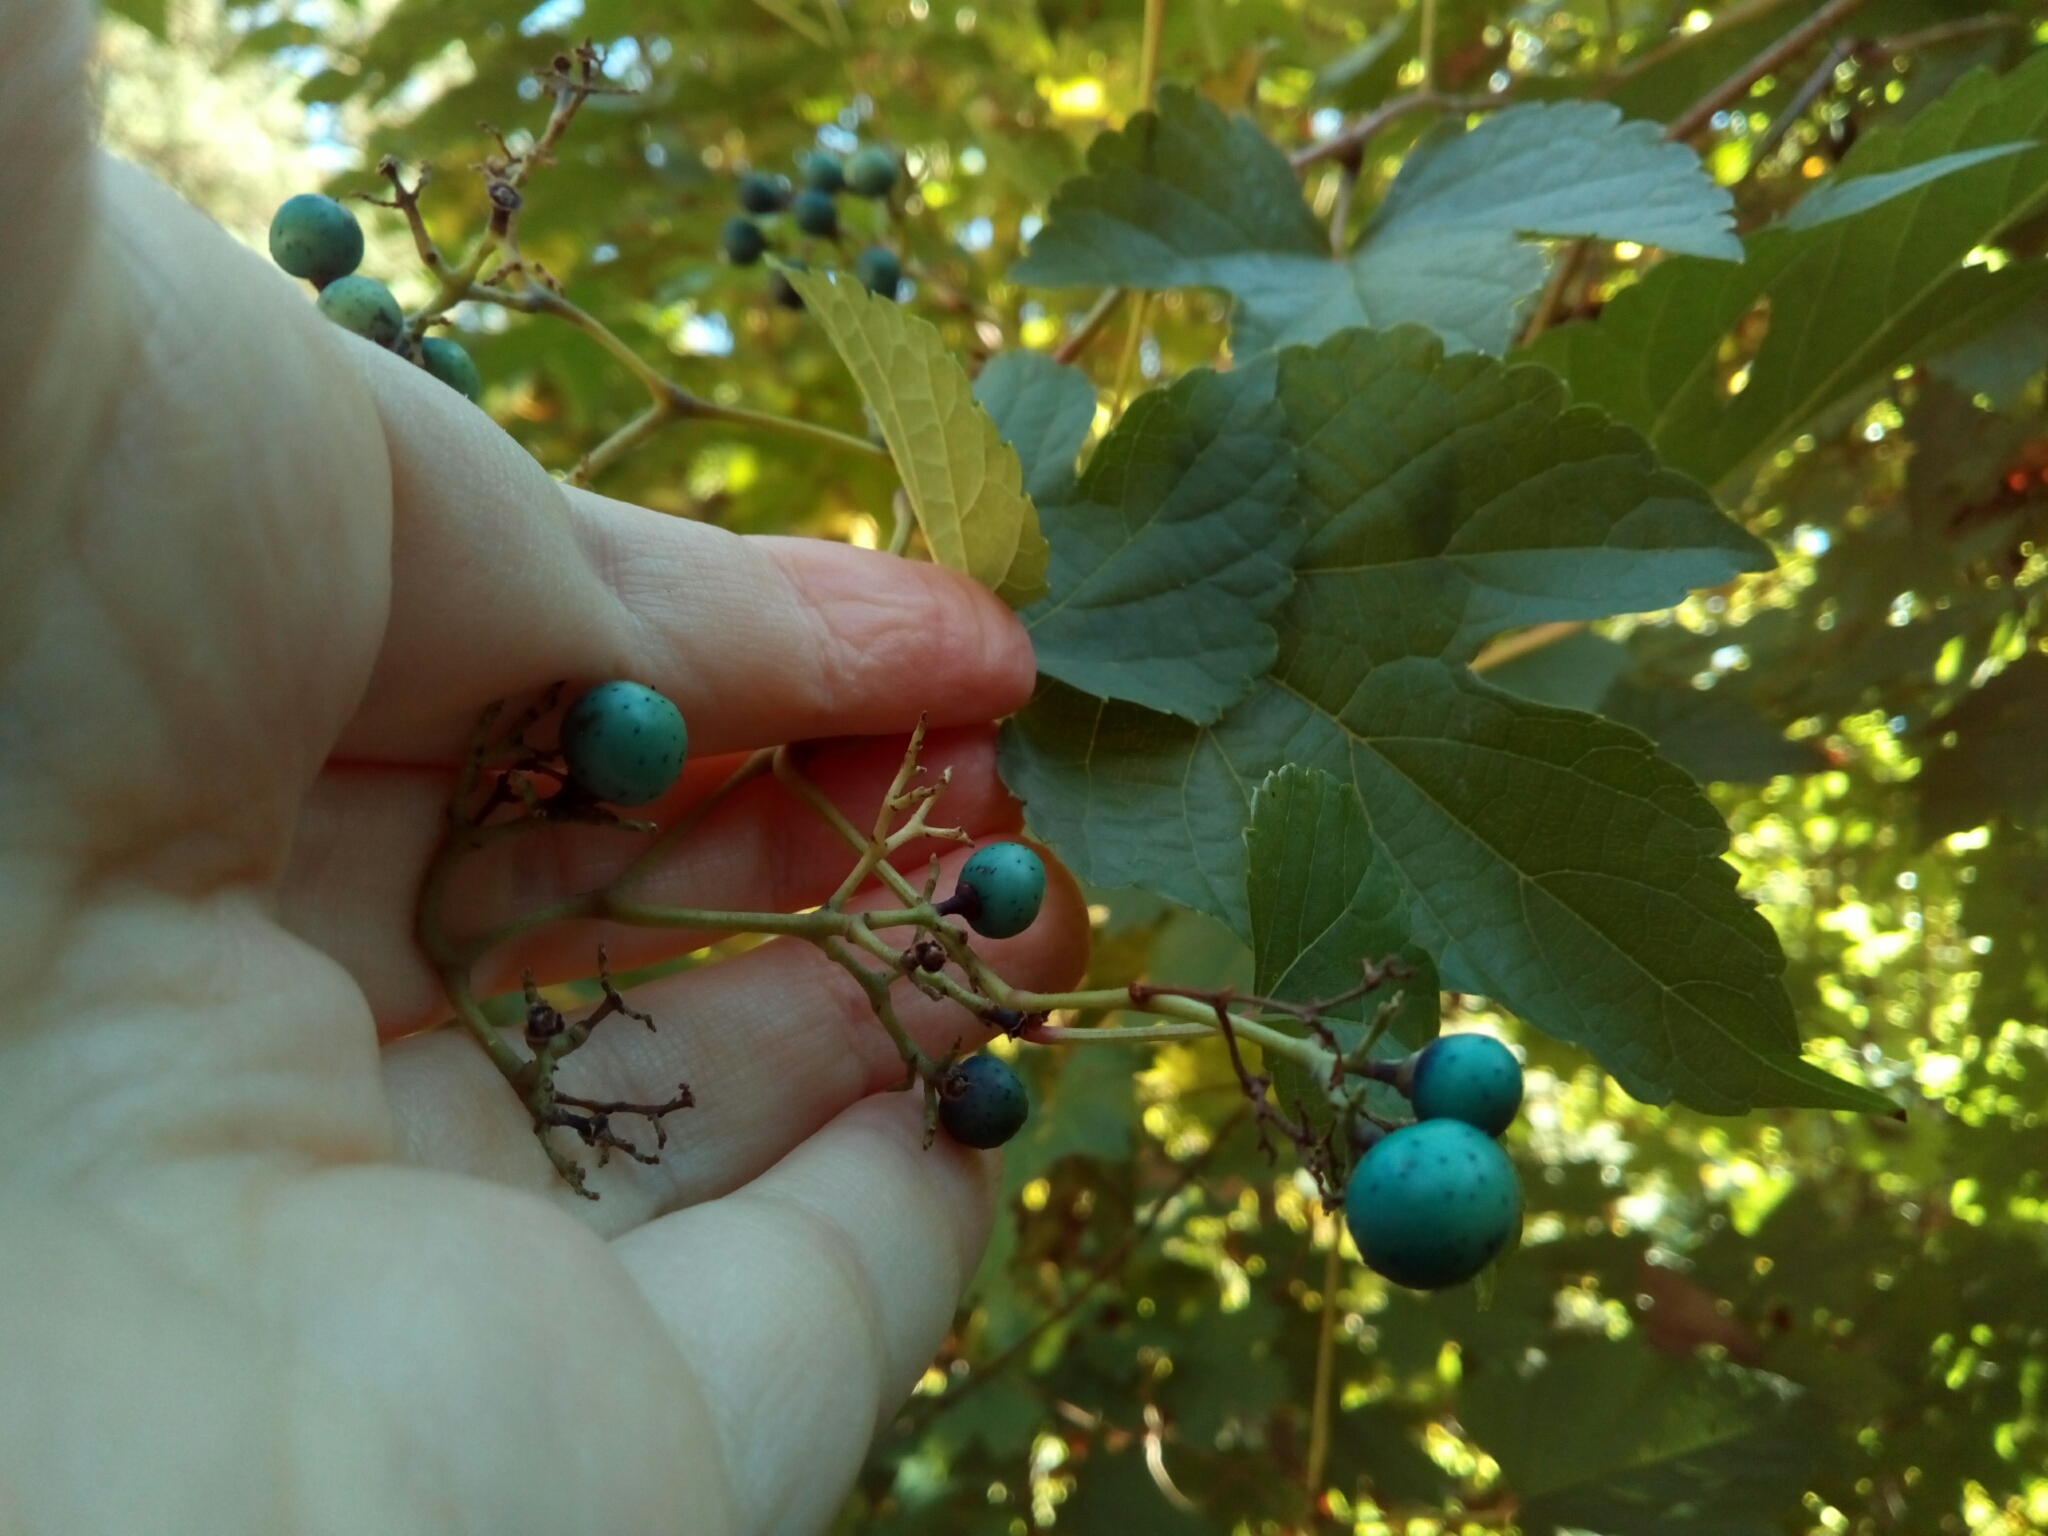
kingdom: Plantae
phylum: Tracheophyta
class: Magnoliopsida
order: Vitales
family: Vitaceae
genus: Ampelopsis
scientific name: Ampelopsis glandulosa
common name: Amur peppervine
